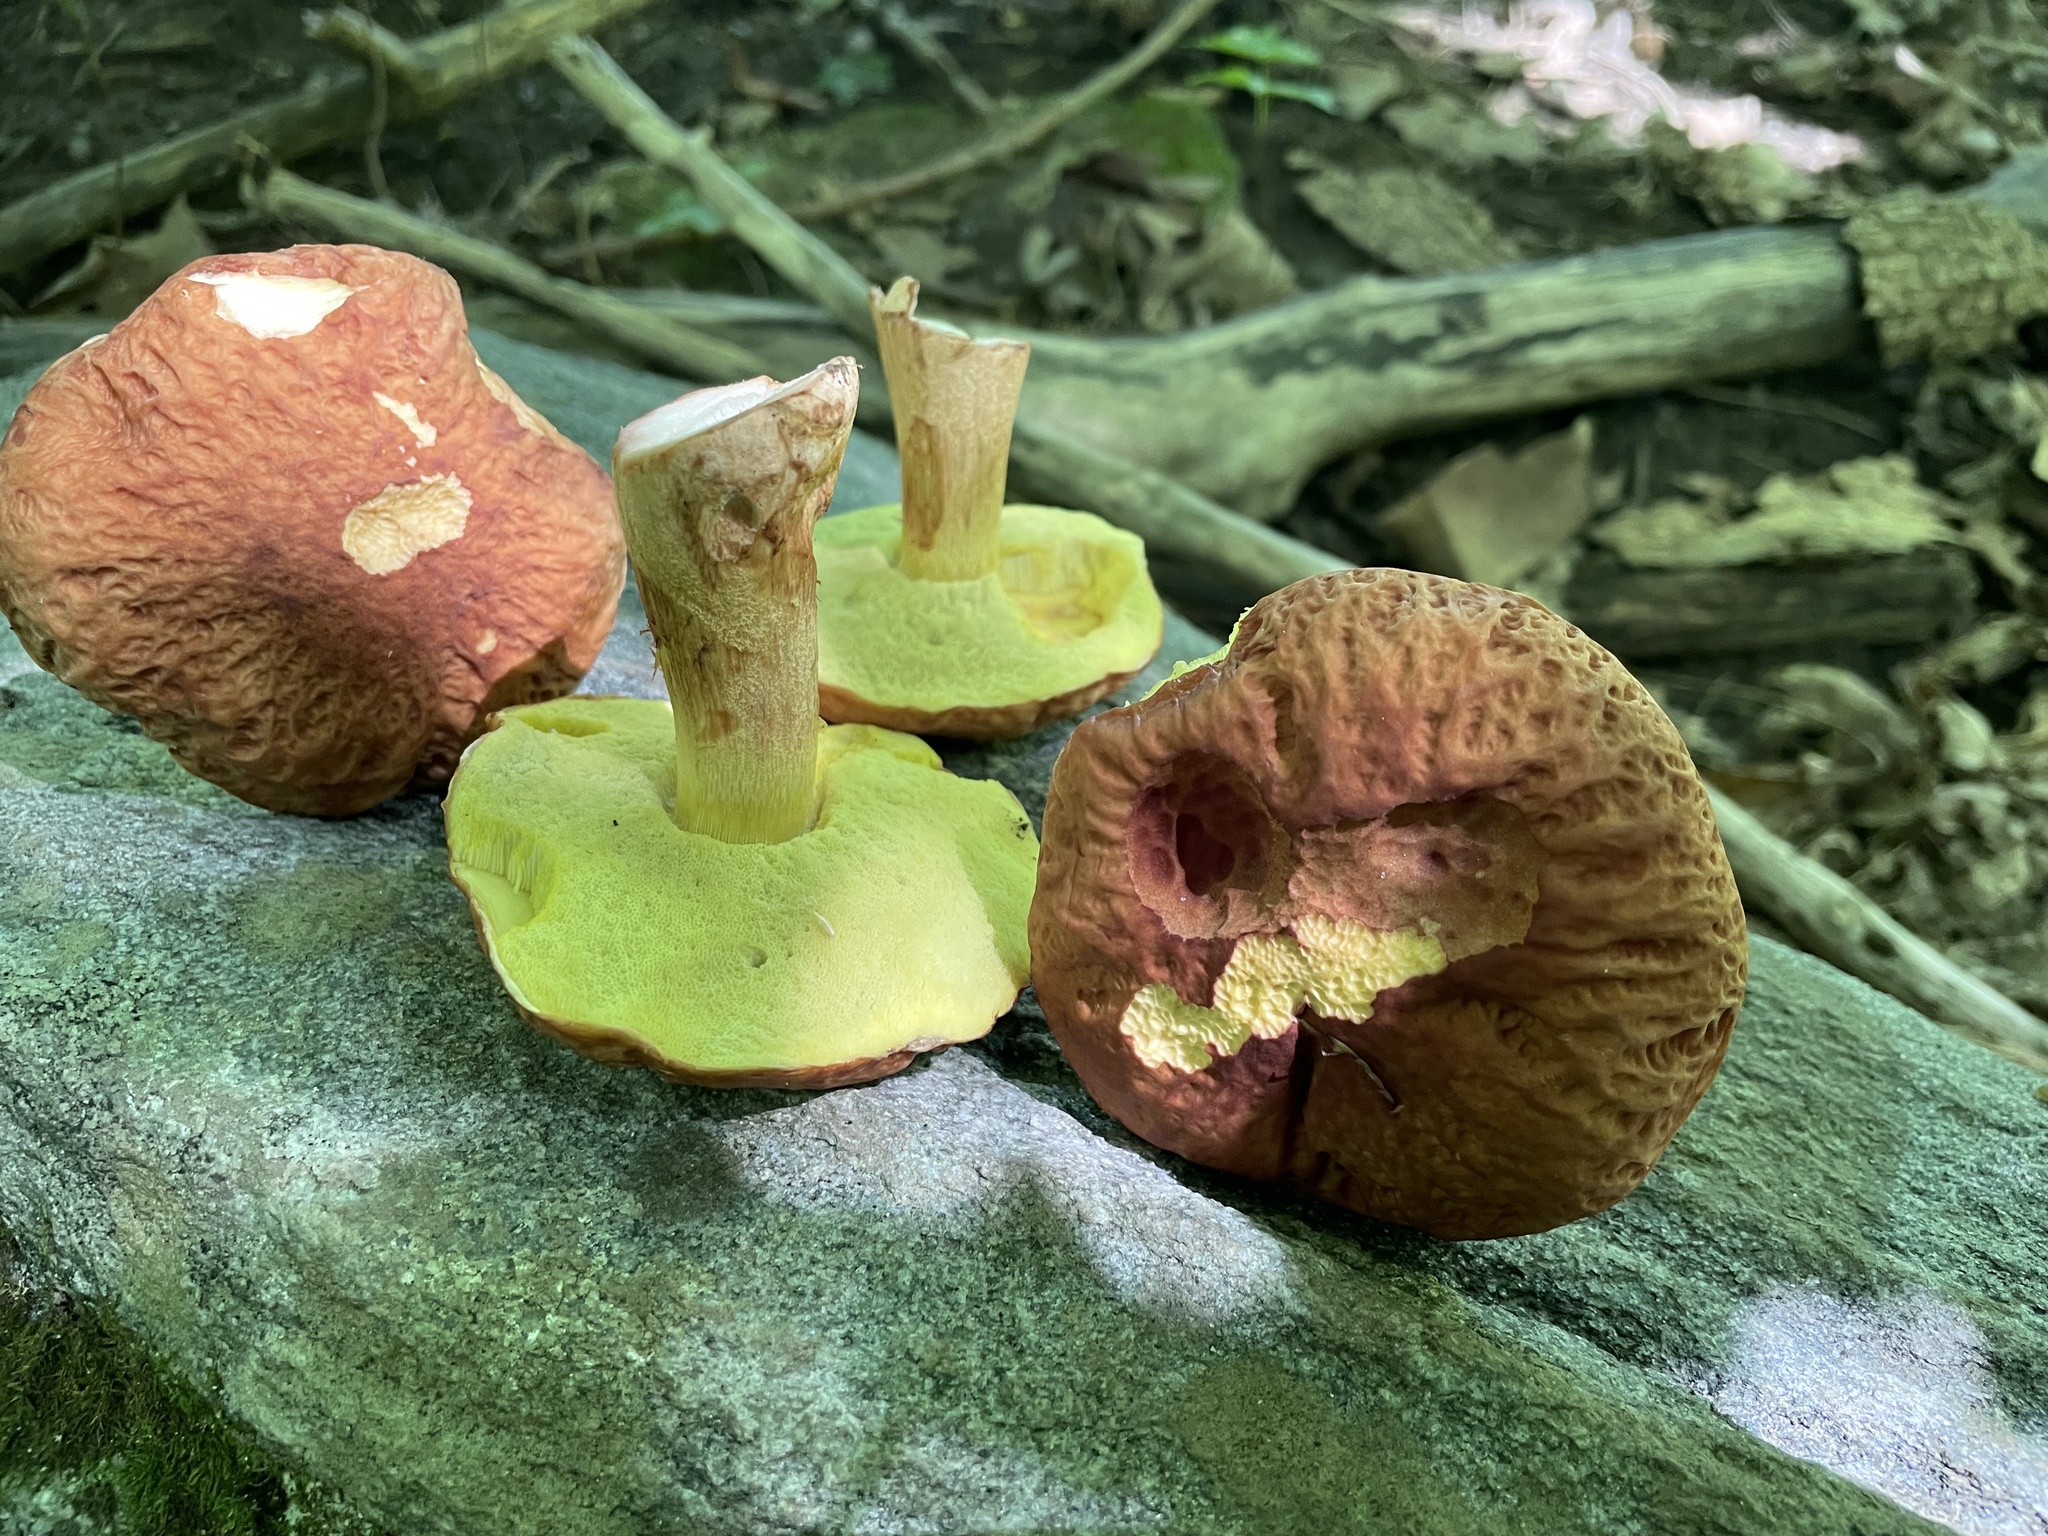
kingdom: Fungi
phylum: Basidiomycota
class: Agaricomycetes
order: Boletales
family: Boletaceae
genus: Hemileccinum
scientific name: Hemileccinum hortonii
